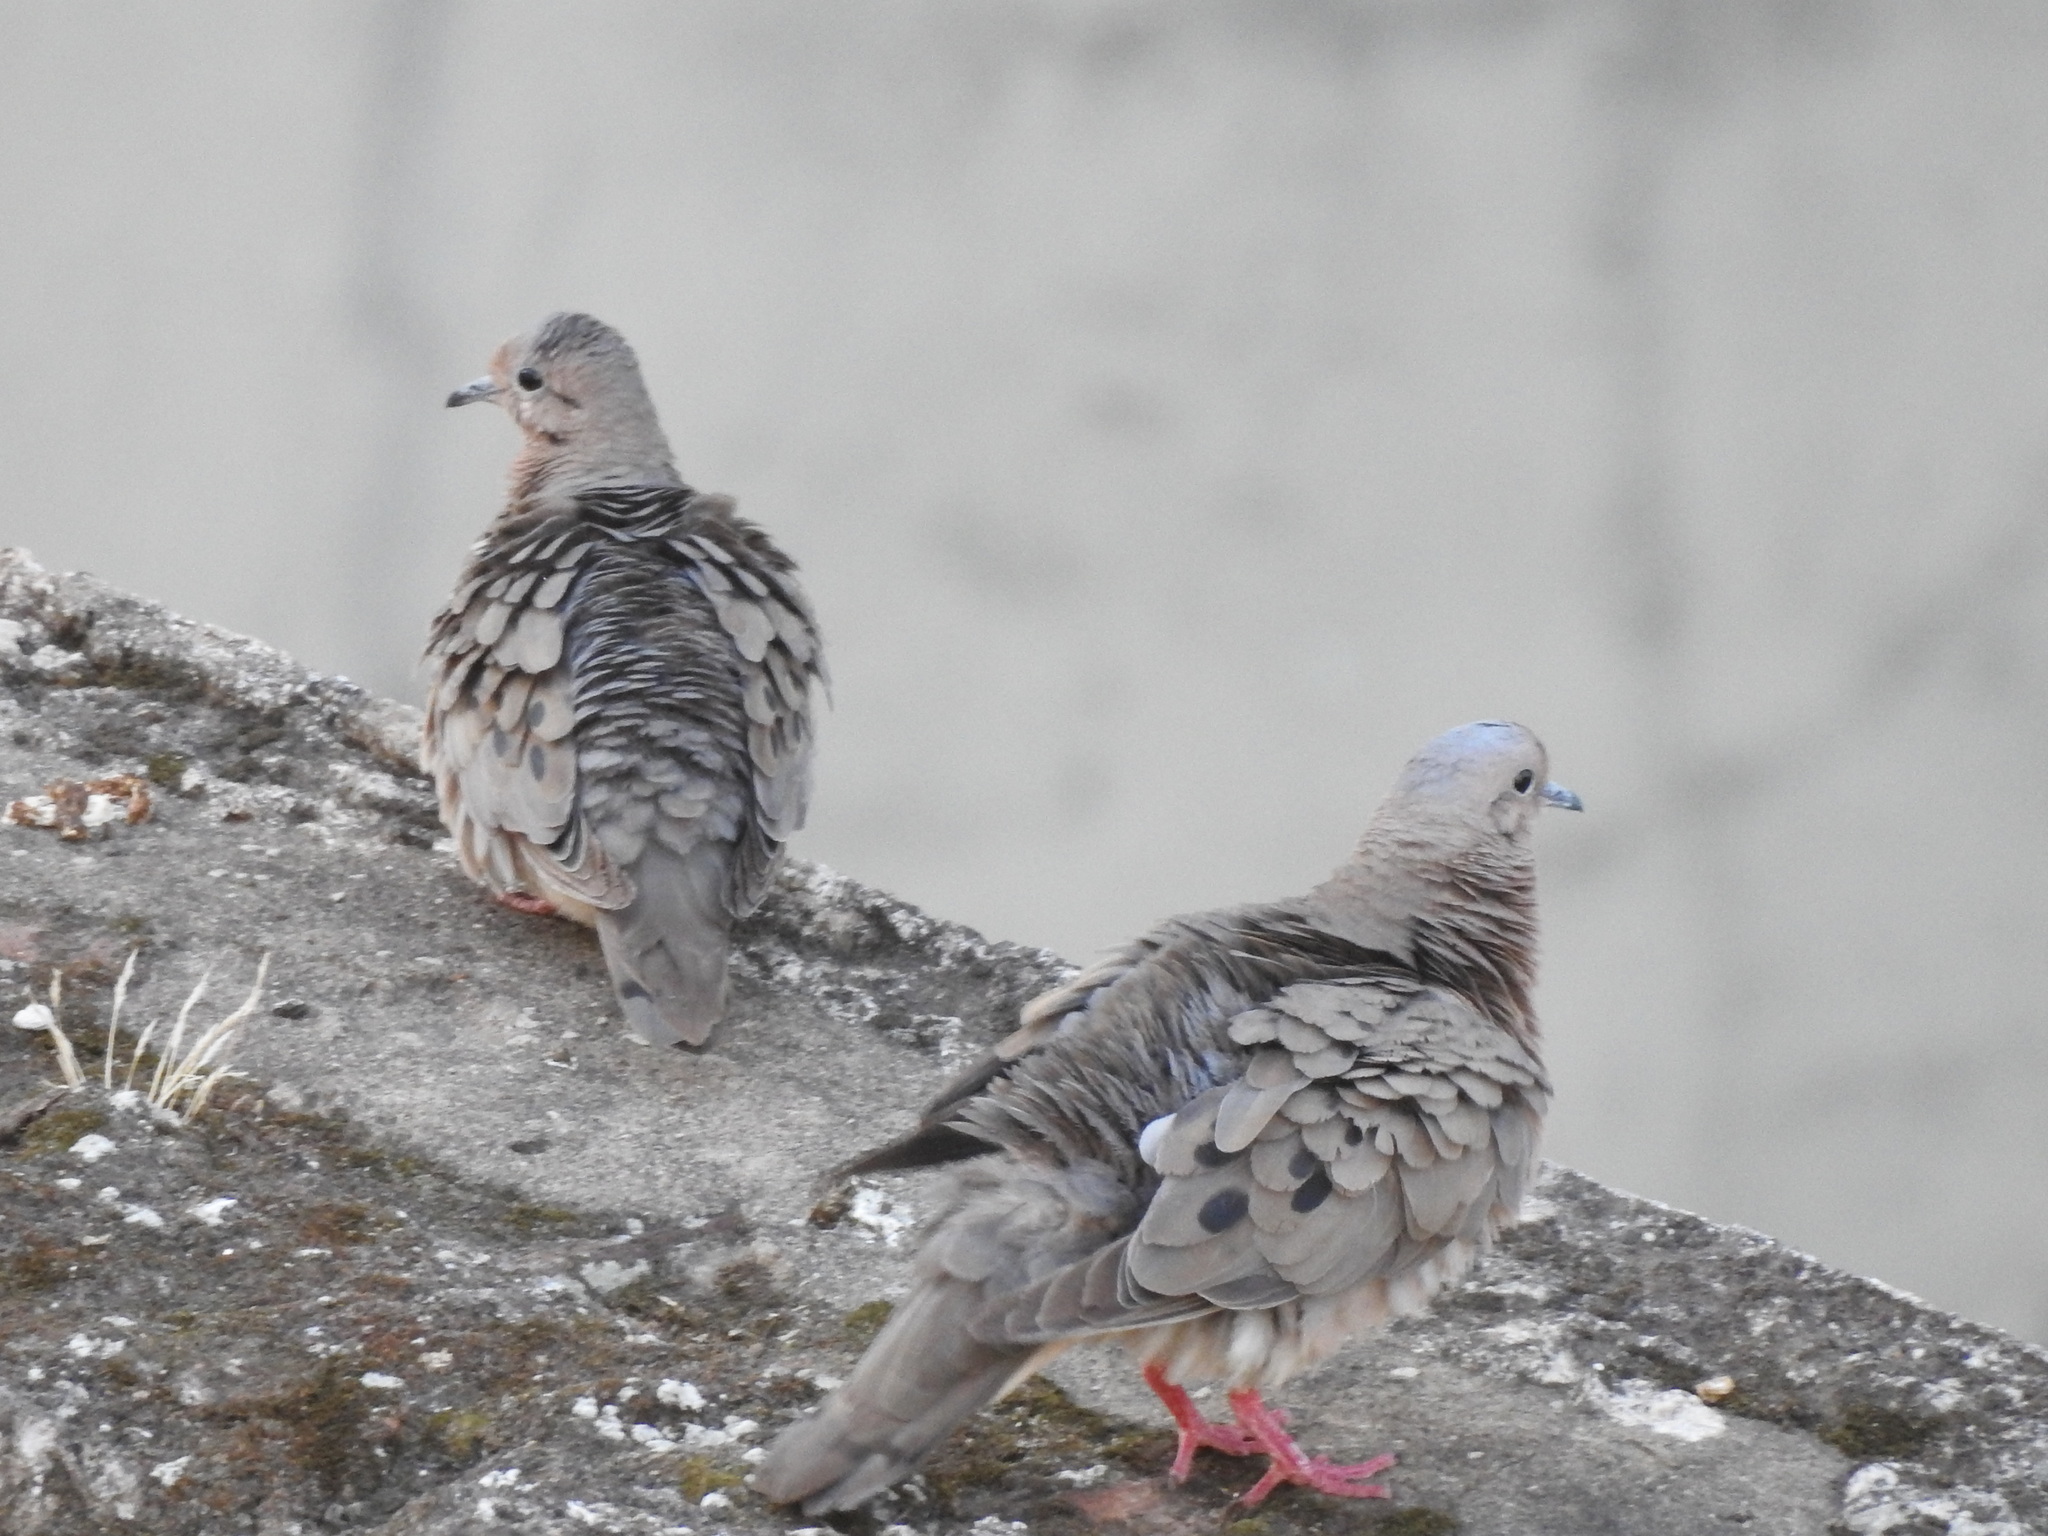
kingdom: Animalia
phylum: Chordata
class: Aves
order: Columbiformes
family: Columbidae
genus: Zenaida
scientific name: Zenaida auriculata
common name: Eared dove
